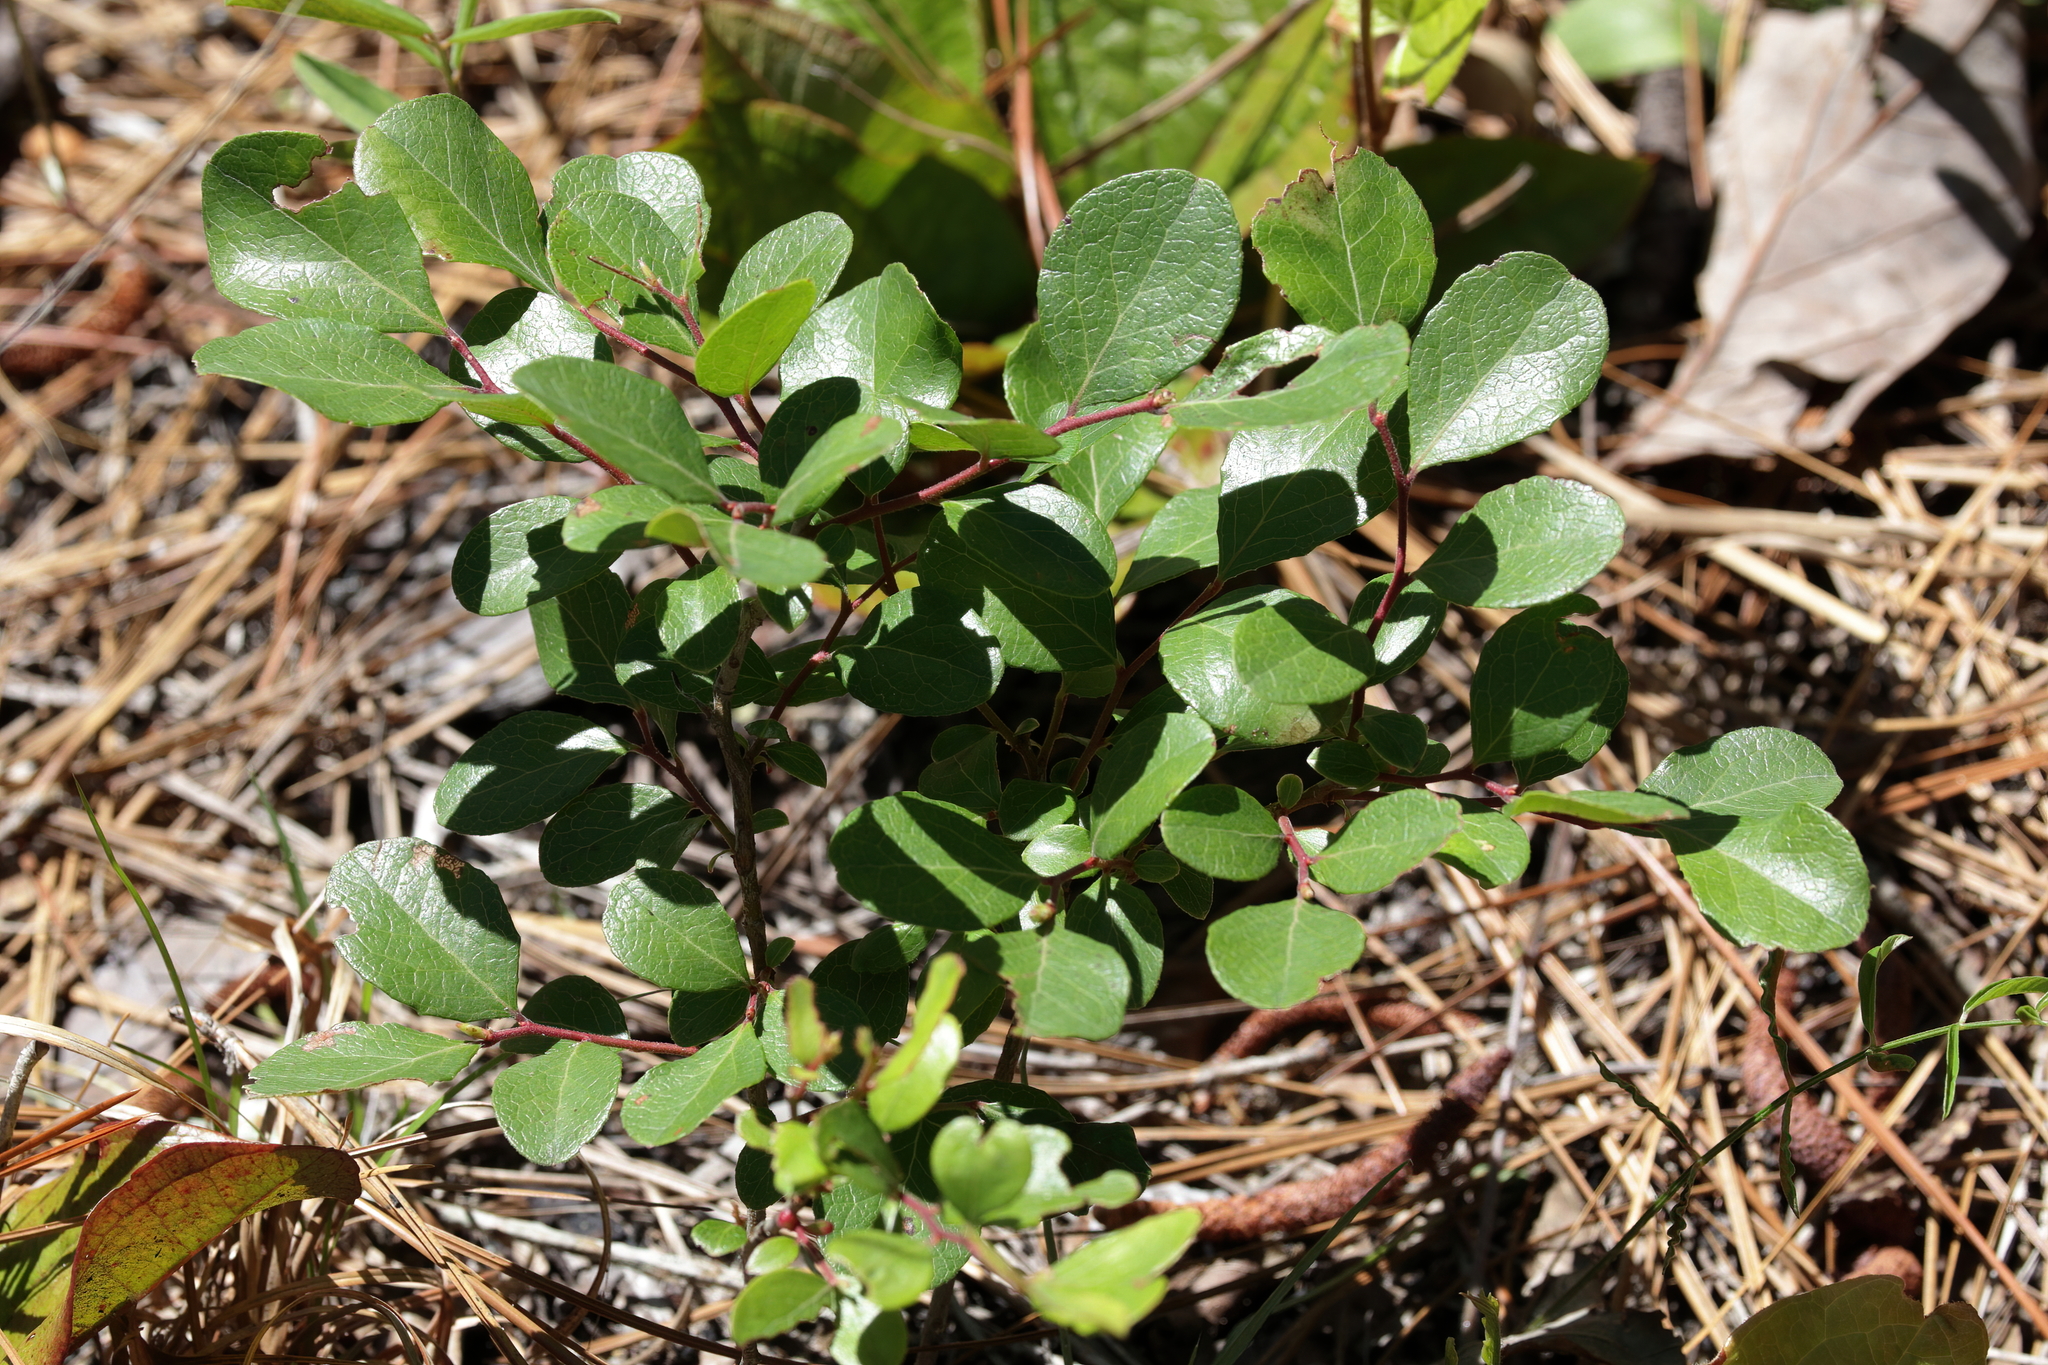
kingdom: Plantae
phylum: Tracheophyta
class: Magnoliopsida
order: Ericales
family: Ericaceae
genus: Vaccinium
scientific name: Vaccinium arboreum
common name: Farkleberry
